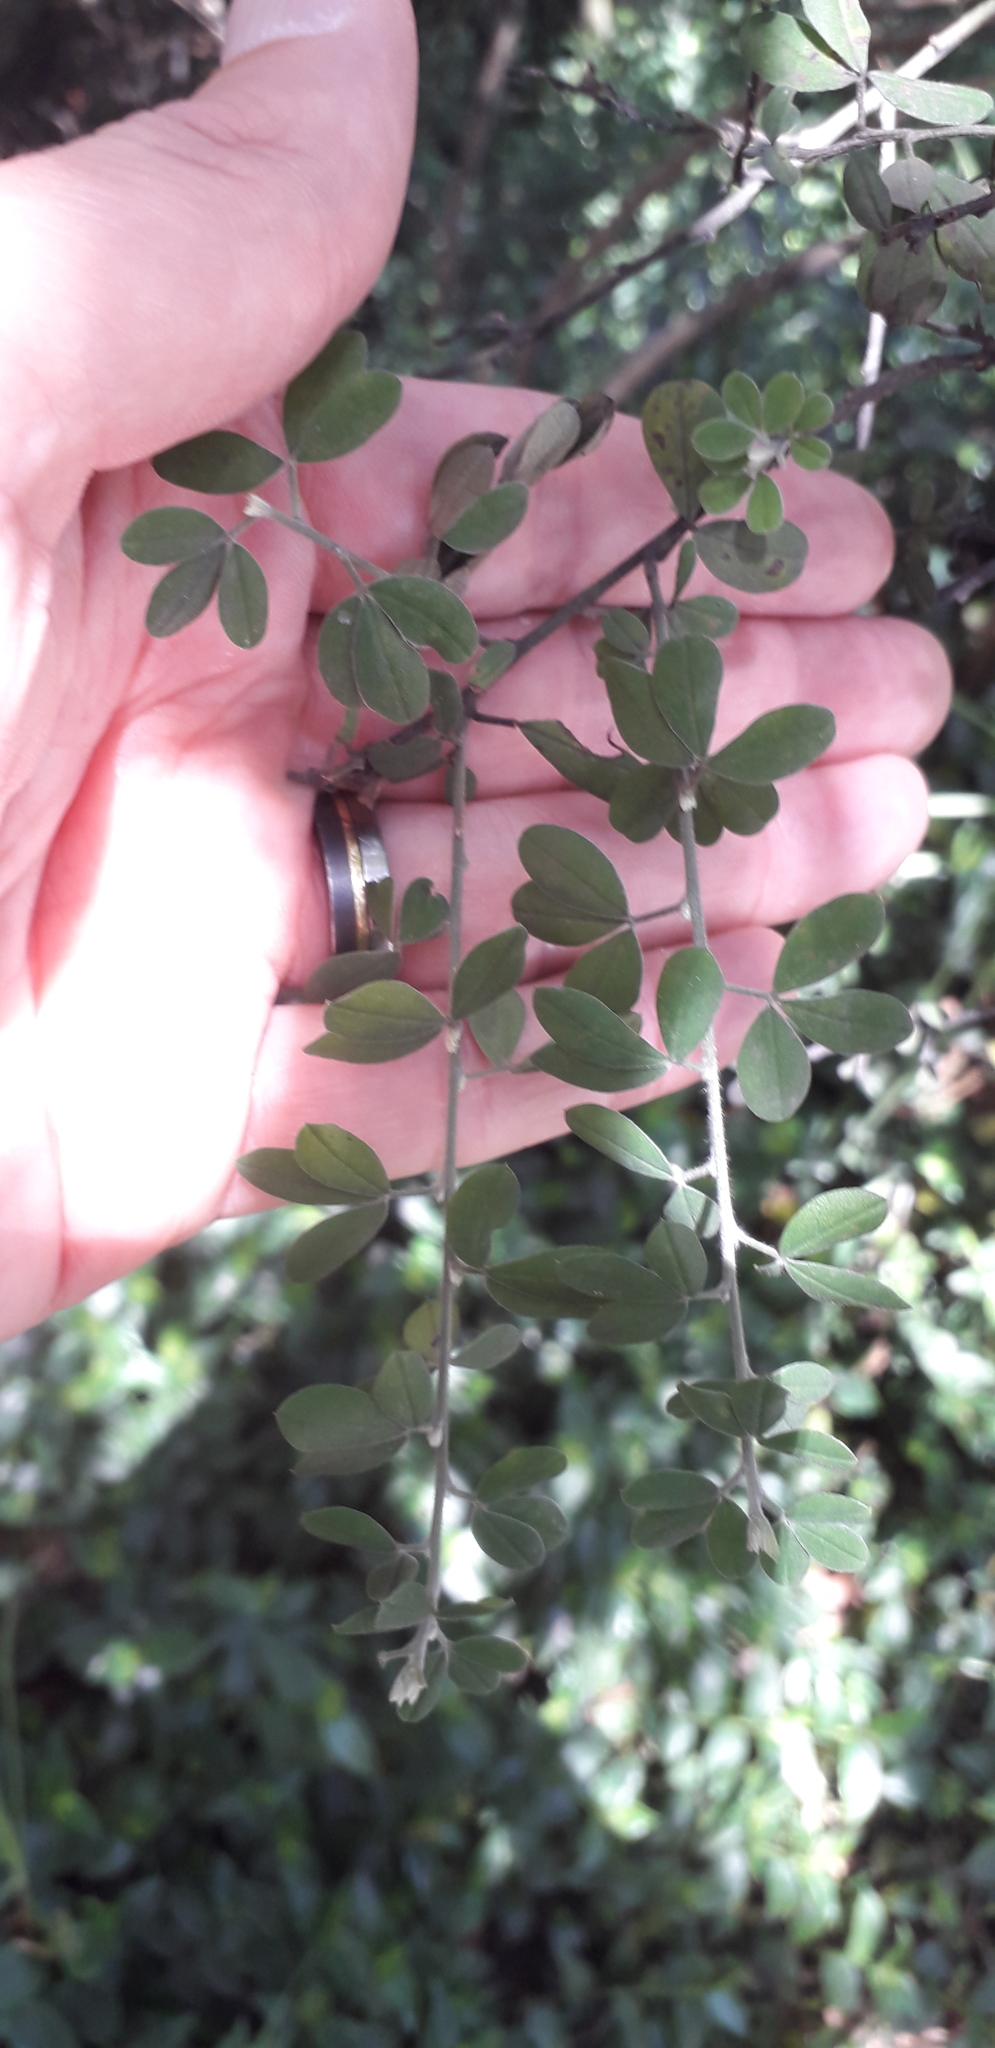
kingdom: Plantae
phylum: Tracheophyta
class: Magnoliopsida
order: Fabales
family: Fabaceae
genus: Genista
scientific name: Genista monspessulana
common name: Montpellier broom
